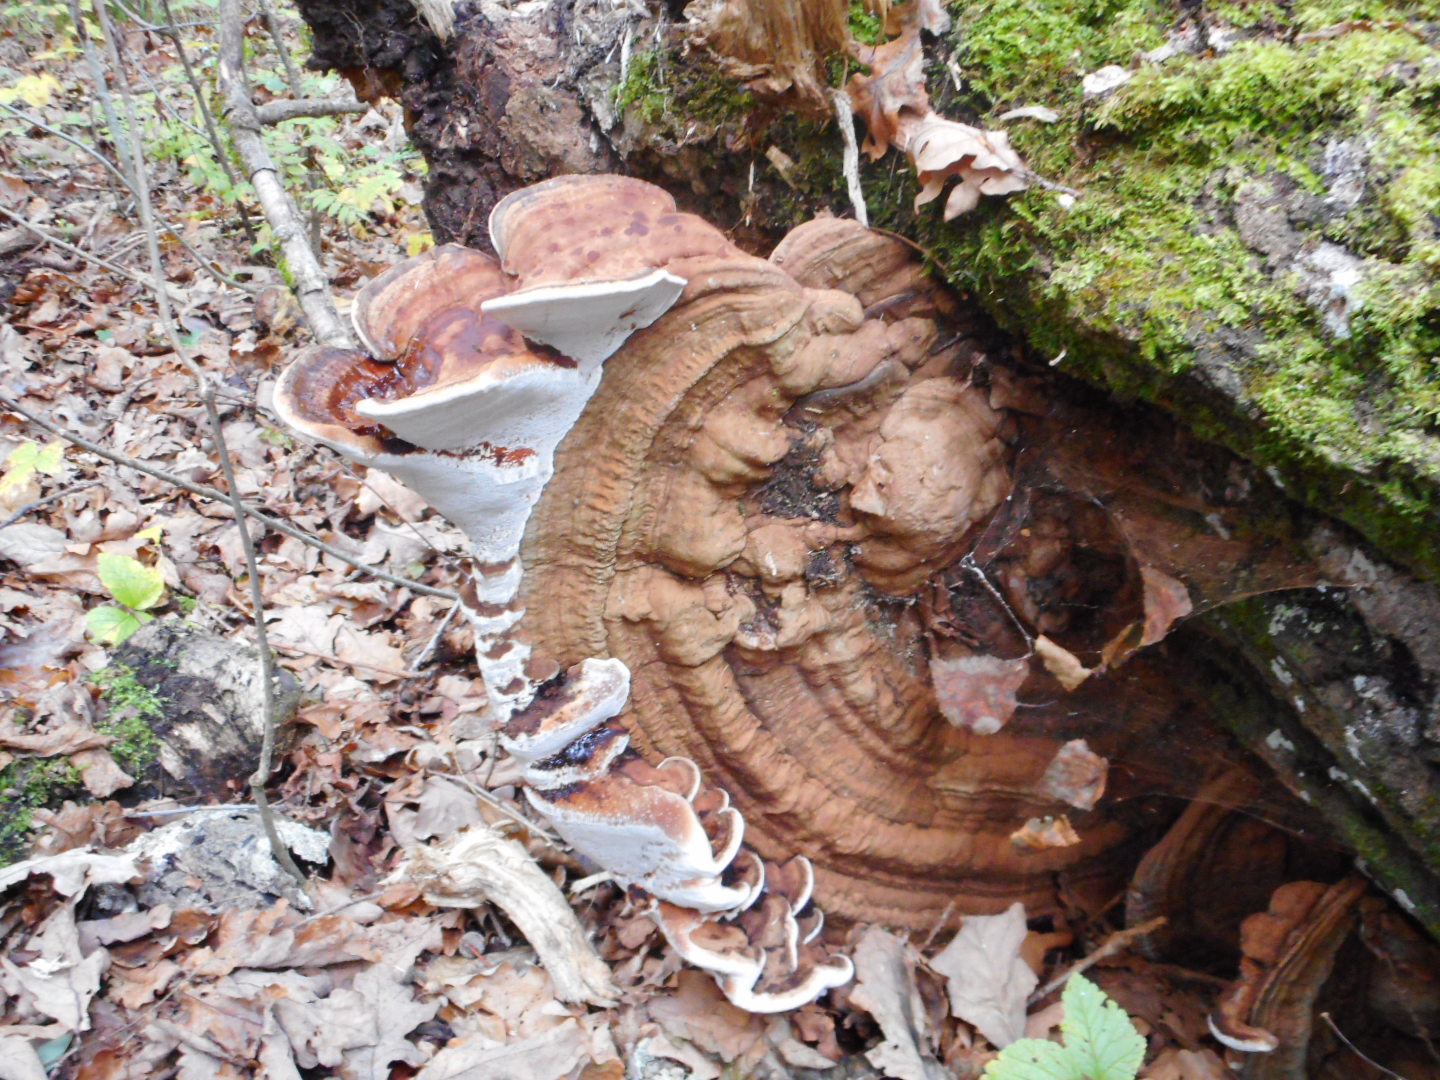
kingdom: Fungi
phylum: Basidiomycota
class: Agaricomycetes
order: Polyporales
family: Polyporaceae
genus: Ganoderma
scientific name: Ganoderma applanatum
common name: Artist's bracket
